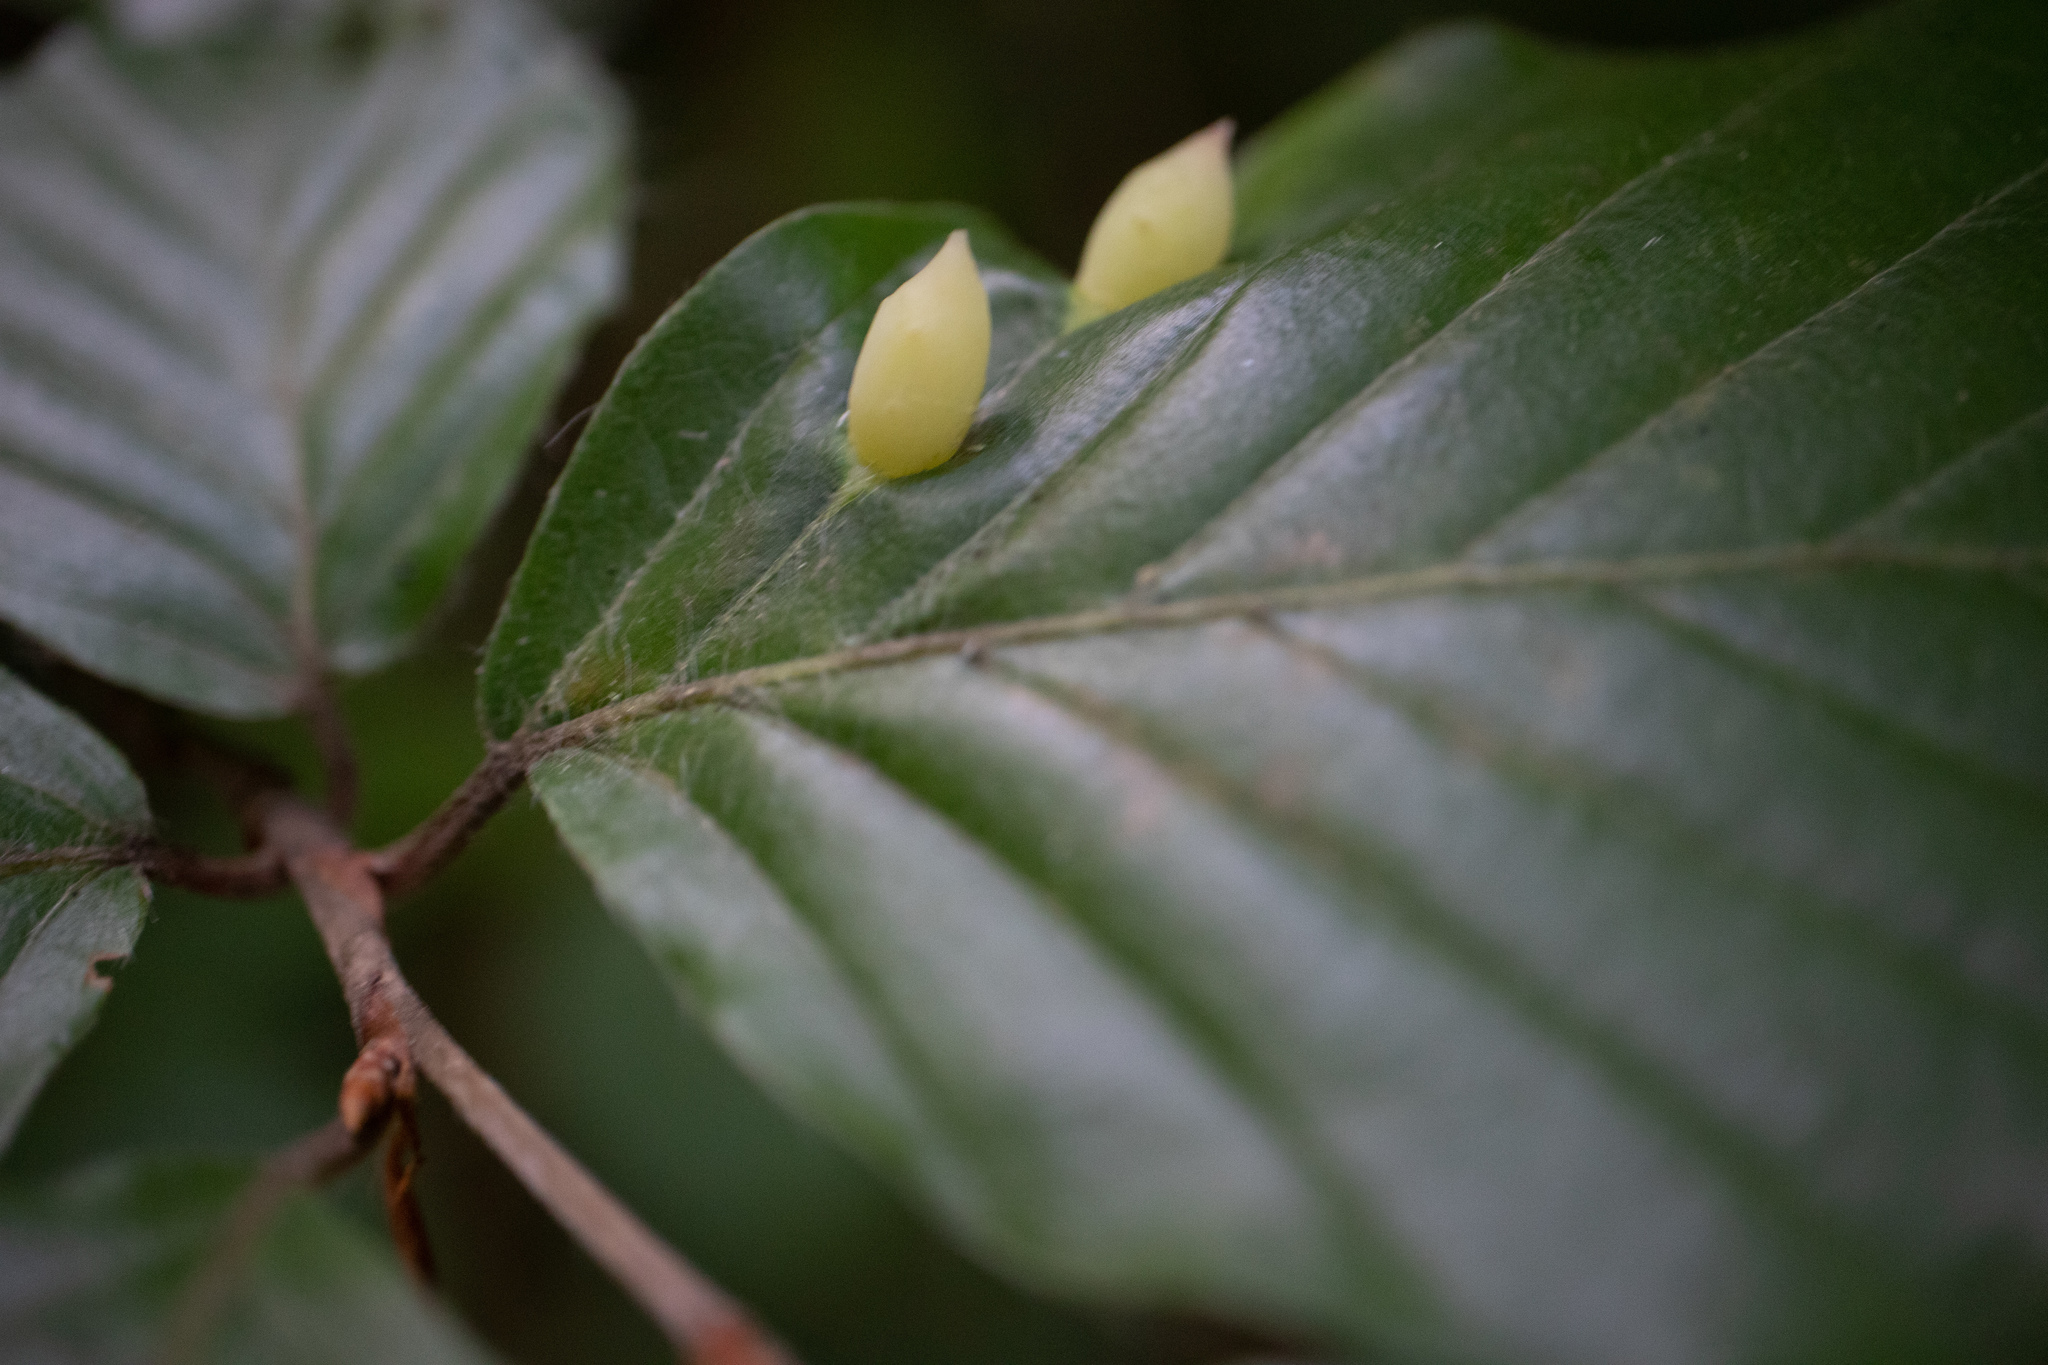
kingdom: Animalia
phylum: Arthropoda
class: Insecta
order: Diptera
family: Cecidomyiidae
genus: Mikiola
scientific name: Mikiola fagi
